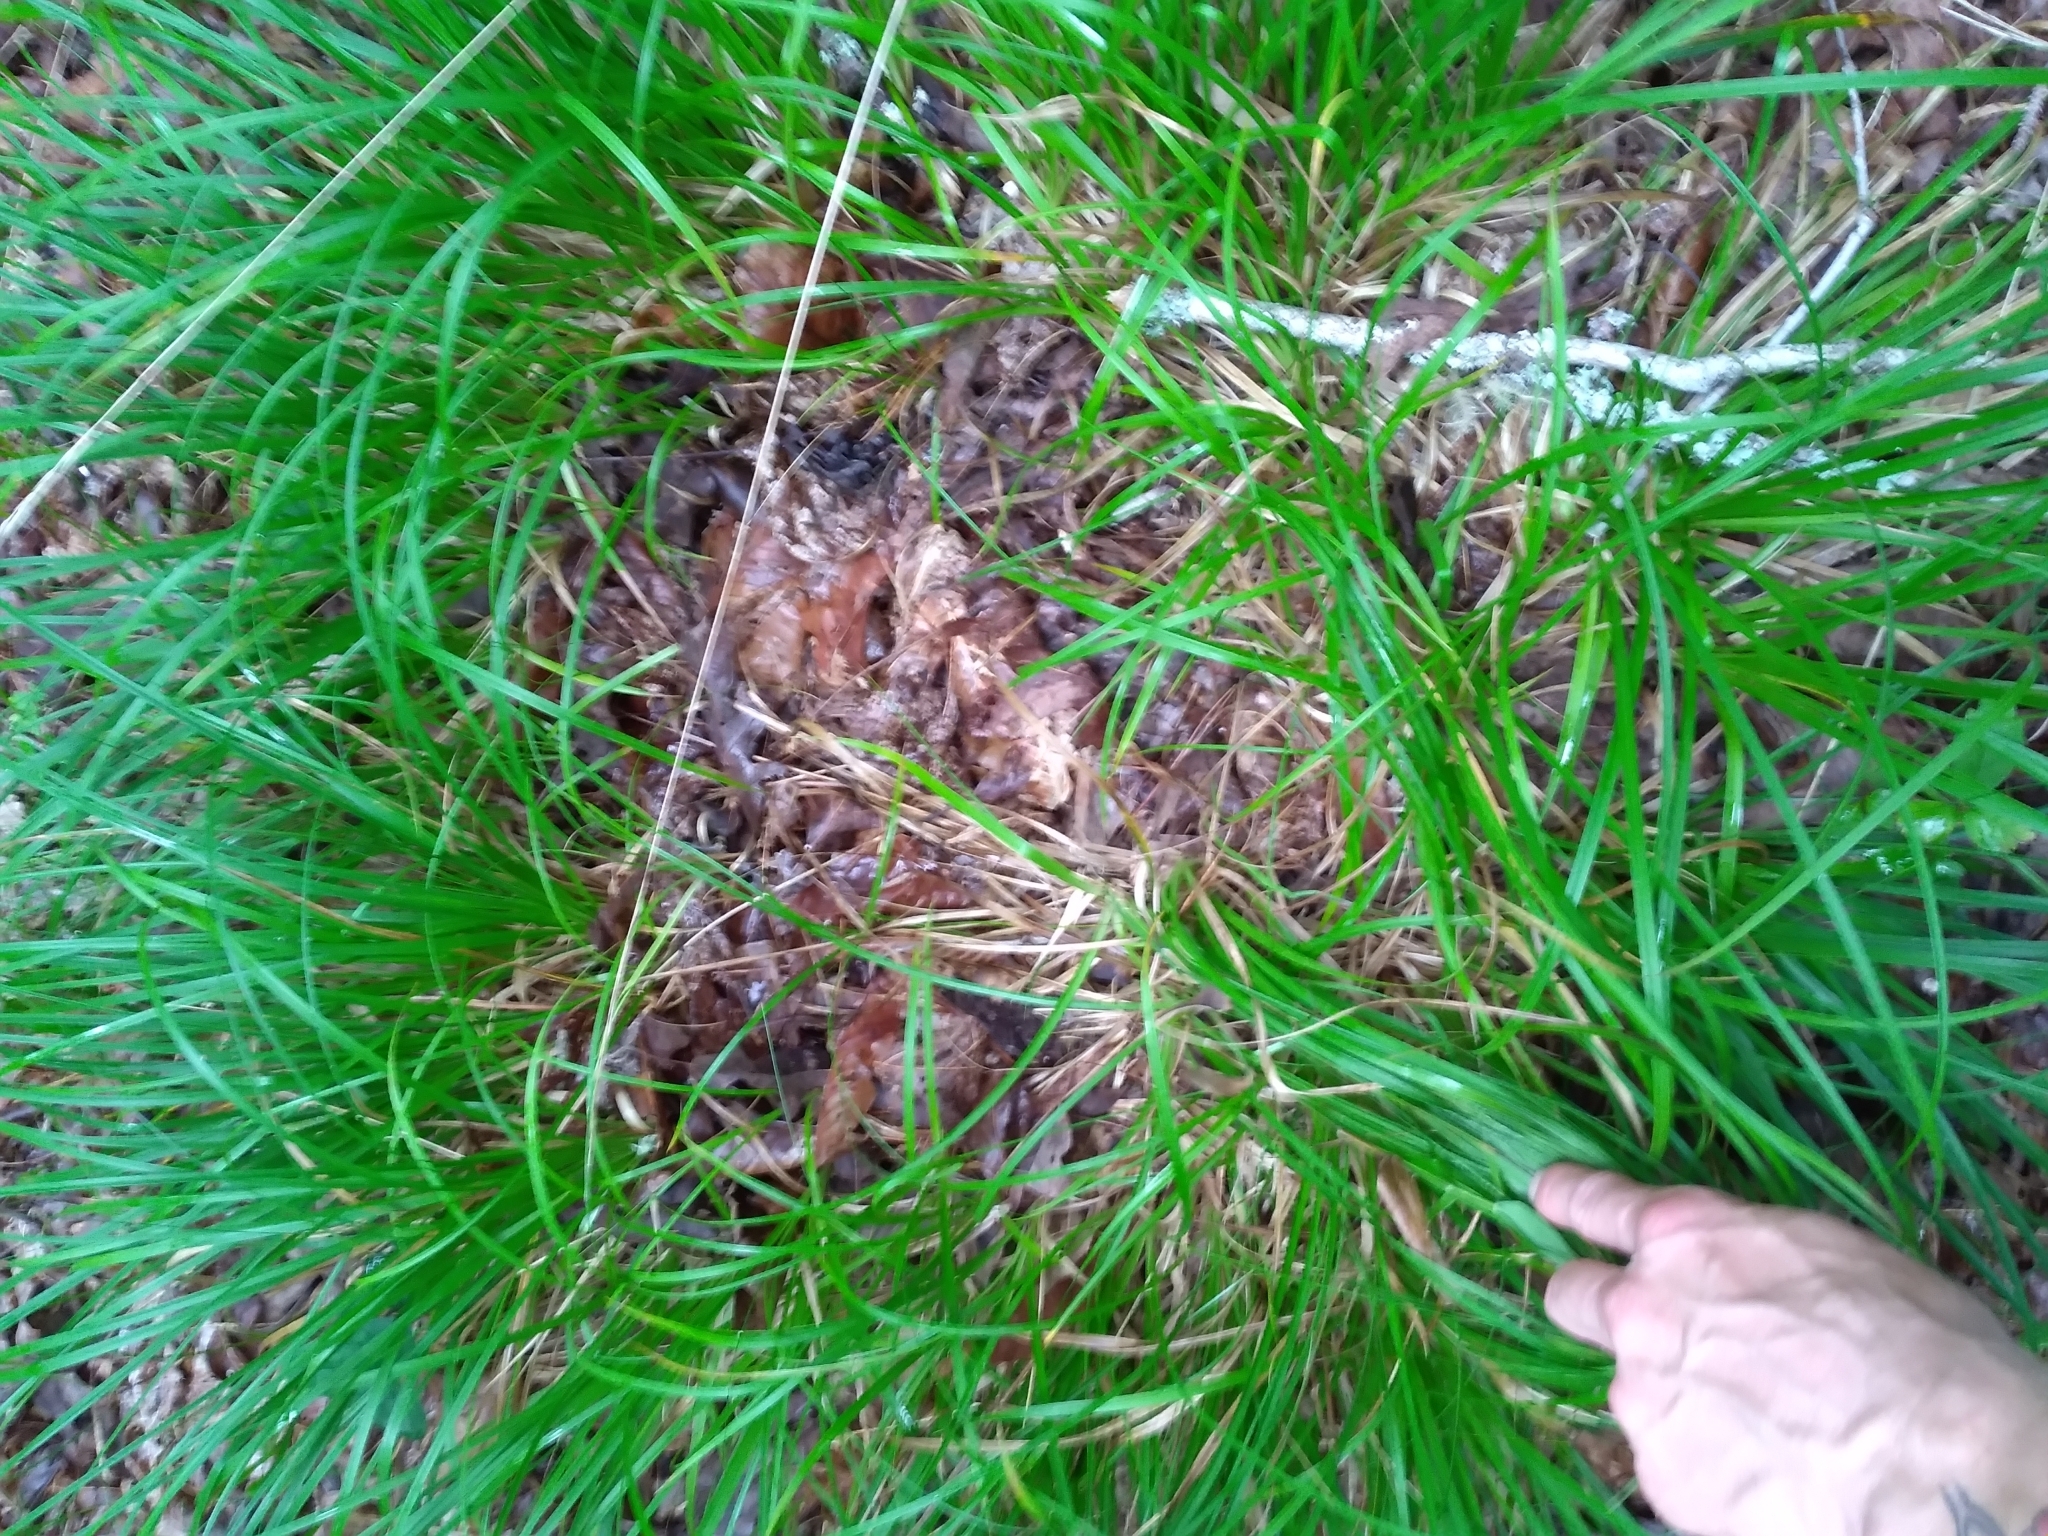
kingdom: Plantae
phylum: Tracheophyta
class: Liliopsida
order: Poales
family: Cyperaceae
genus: Carex
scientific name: Carex picta
